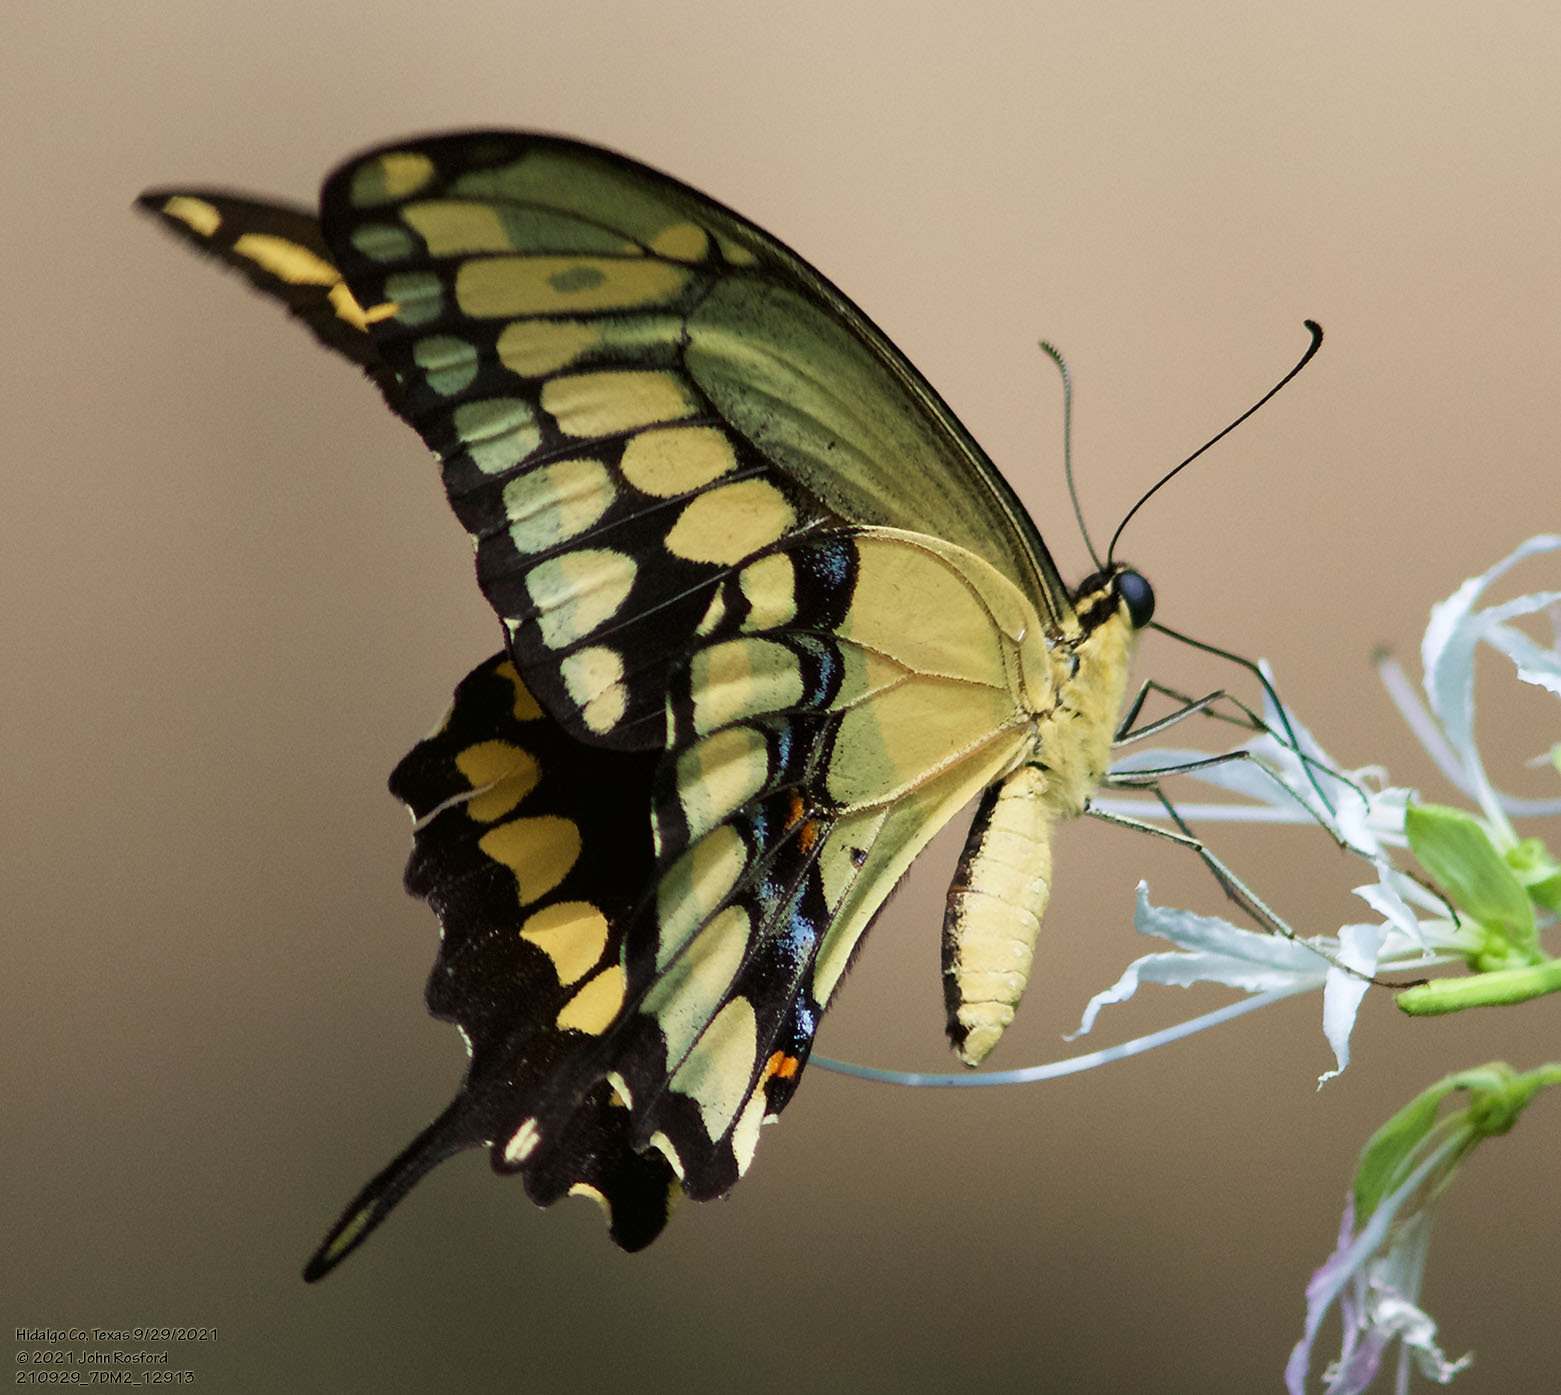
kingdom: Animalia
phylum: Arthropoda
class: Insecta
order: Lepidoptera
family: Papilionidae
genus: Papilio
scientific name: Papilio rumiko
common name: Western giant swallowtail
